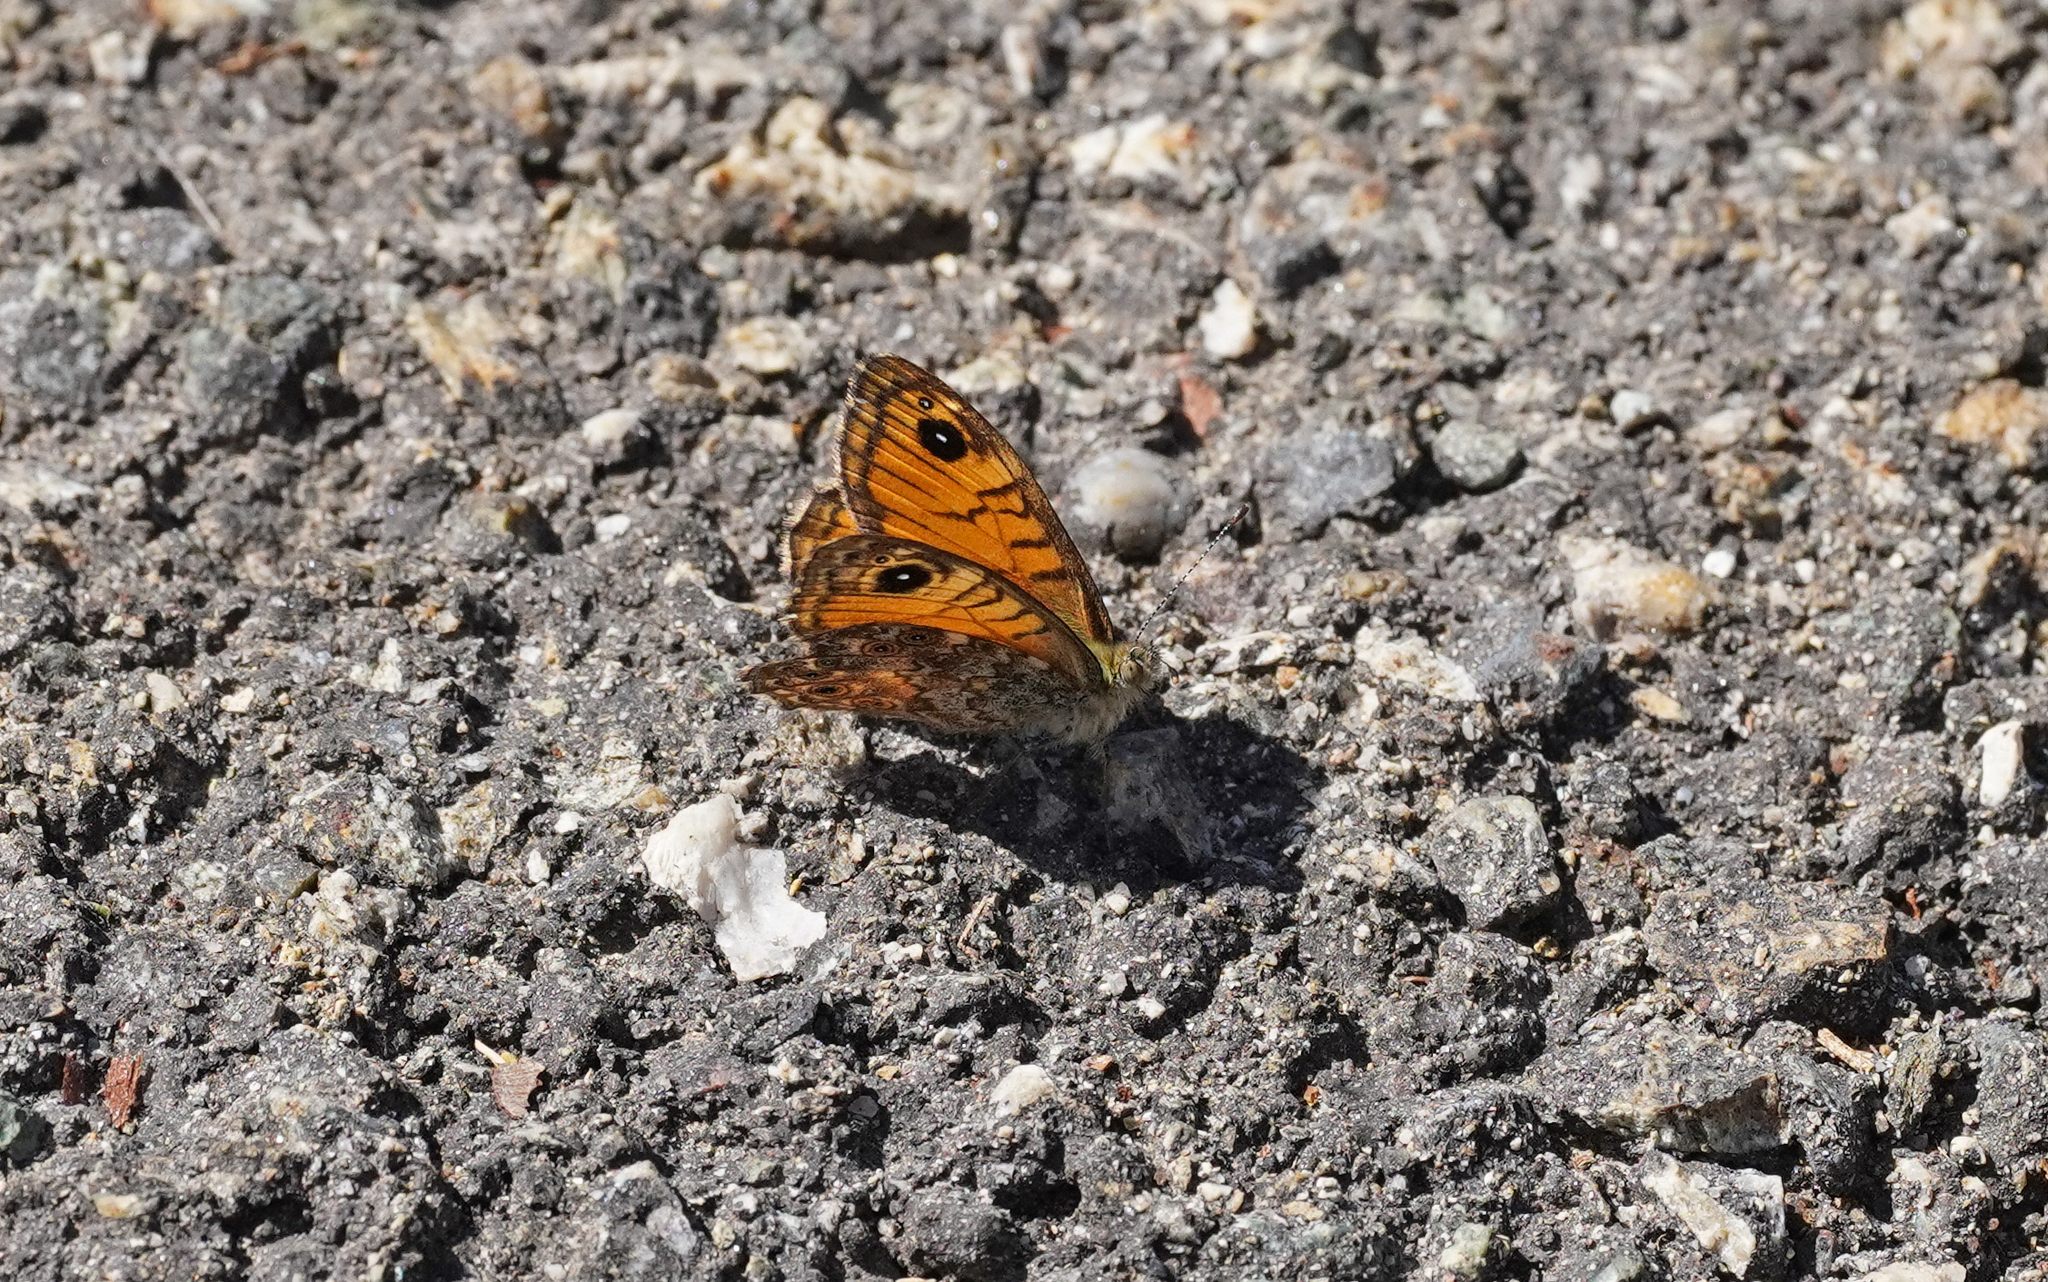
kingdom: Animalia
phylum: Arthropoda
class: Insecta
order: Lepidoptera
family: Nymphalidae
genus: Pararge
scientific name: Pararge Lasiommata paramegaera
